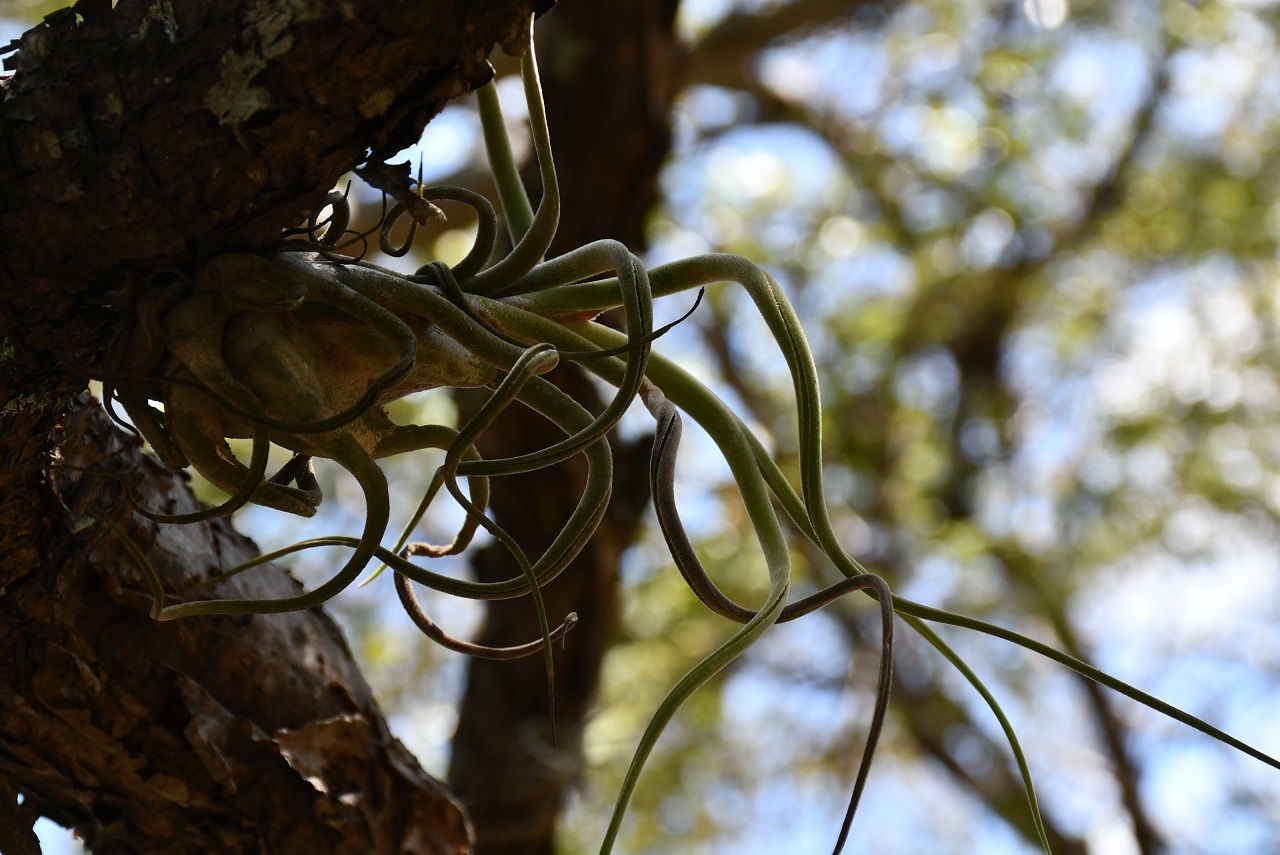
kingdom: Plantae
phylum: Tracheophyta
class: Liliopsida
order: Poales
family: Bromeliaceae
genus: Tillandsia
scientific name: Tillandsia caput-medusae
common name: Octopus plant
